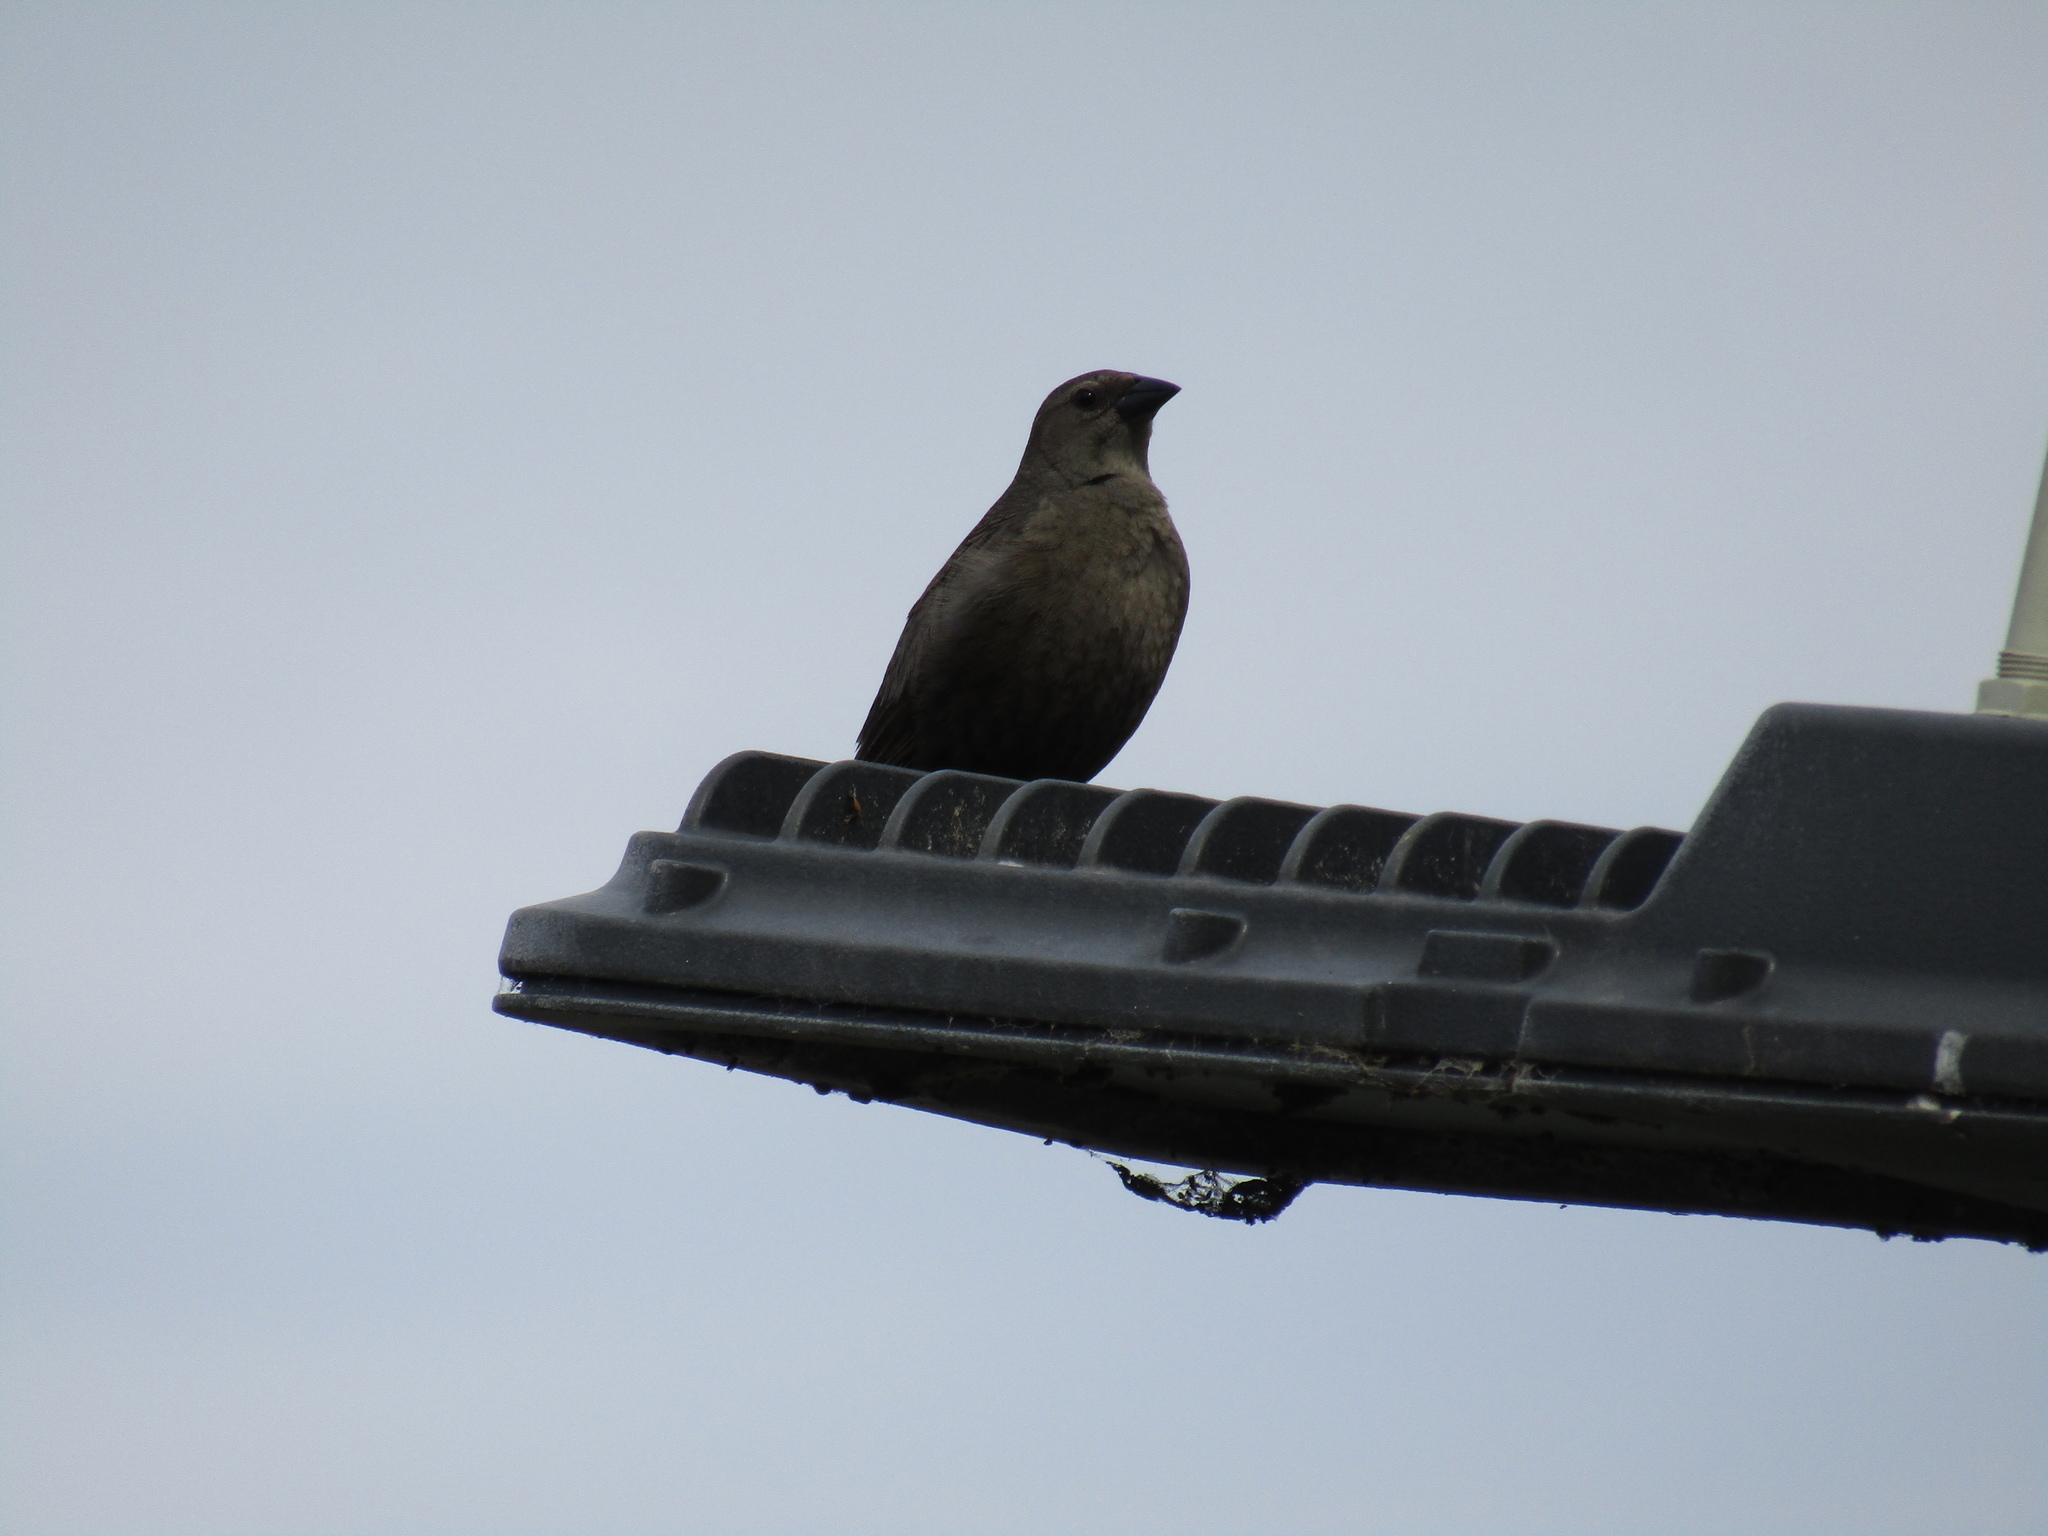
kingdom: Animalia
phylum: Chordata
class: Aves
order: Passeriformes
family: Icteridae
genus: Agelaioides
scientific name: Agelaioides badius
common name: Baywing
